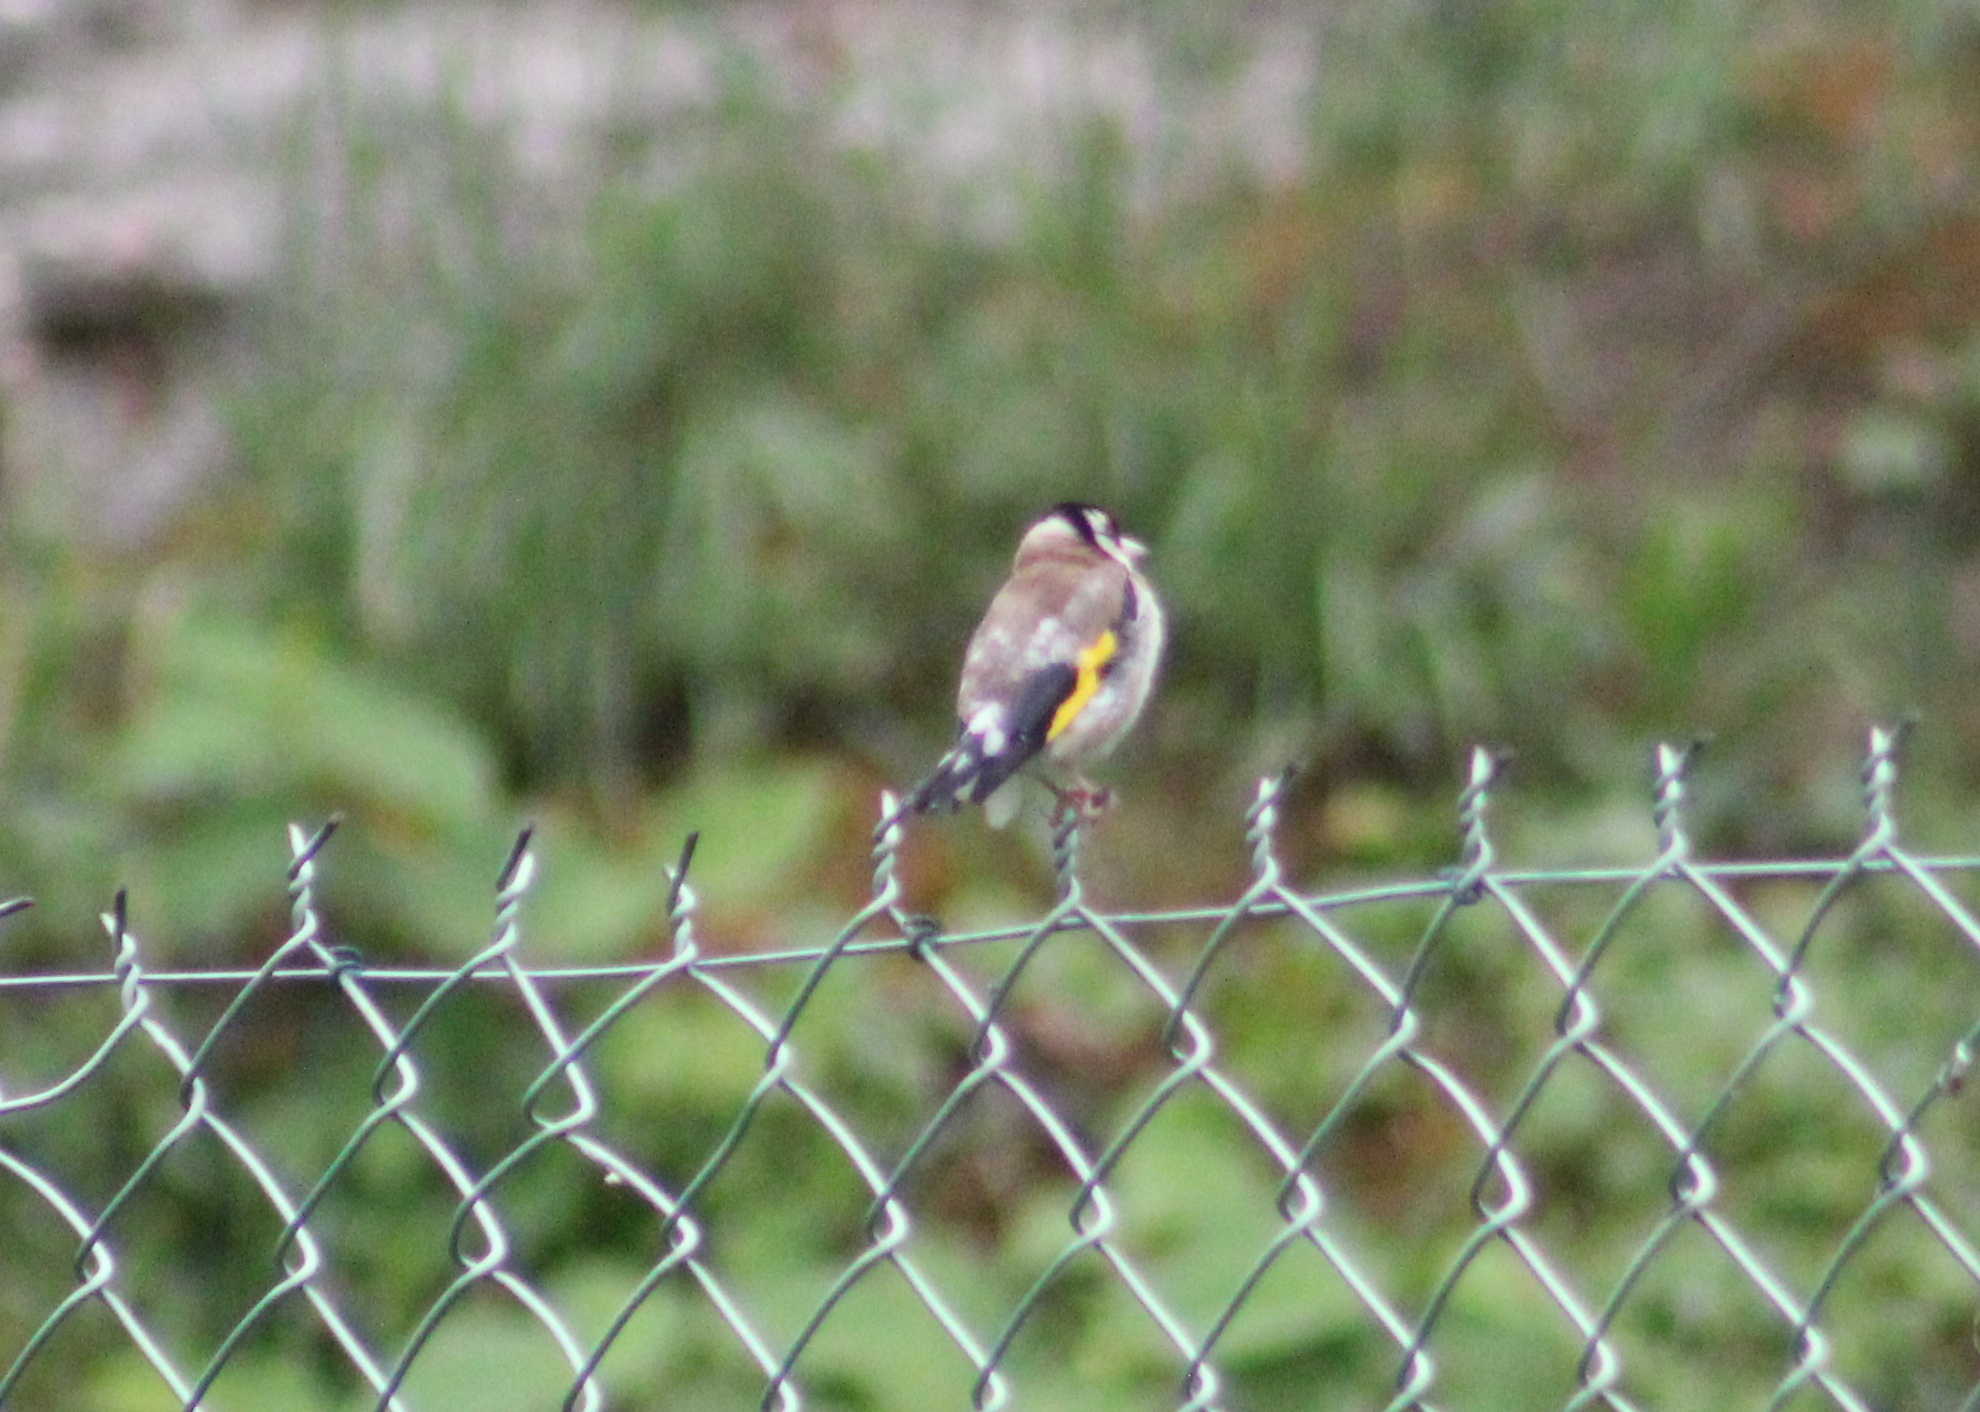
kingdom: Animalia
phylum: Chordata
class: Aves
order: Passeriformes
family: Fringillidae
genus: Carduelis
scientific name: Carduelis carduelis
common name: European goldfinch
